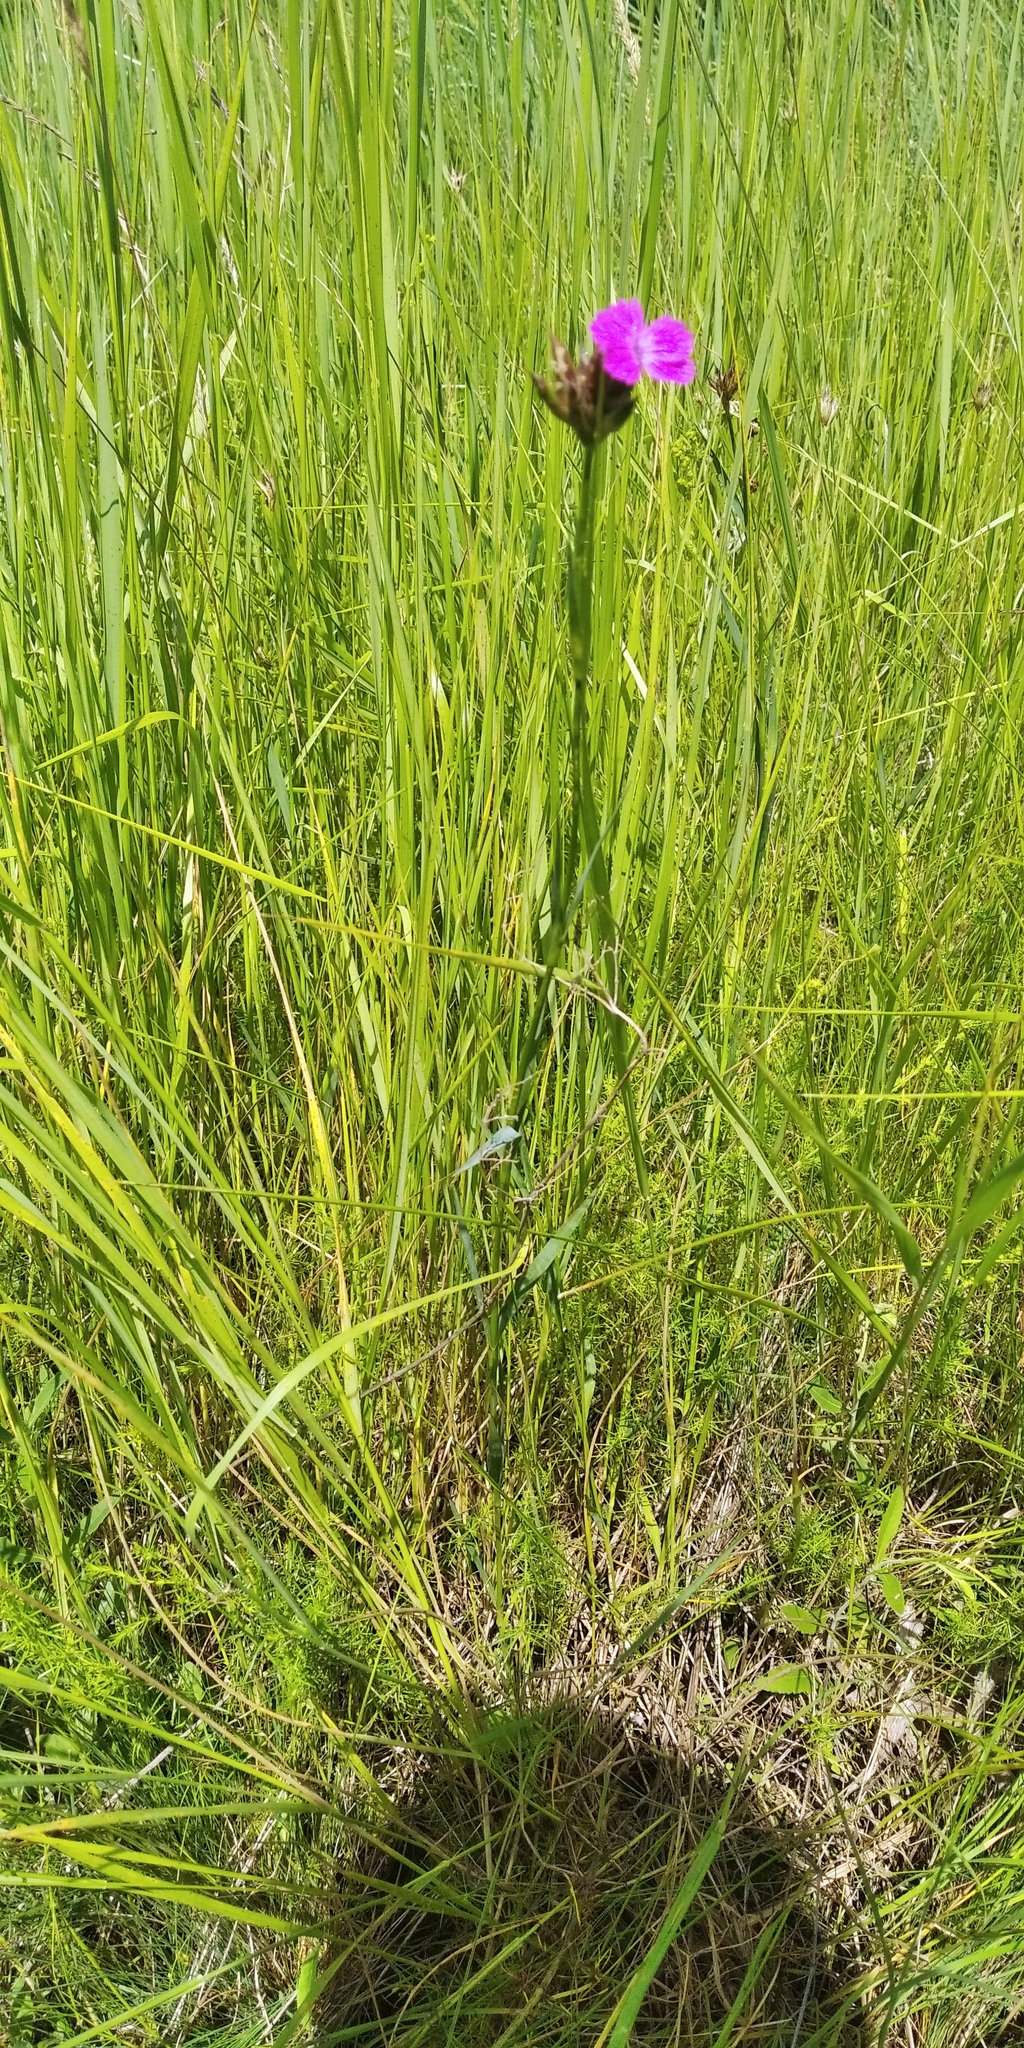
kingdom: Plantae
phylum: Tracheophyta
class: Magnoliopsida
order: Caryophyllales
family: Caryophyllaceae
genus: Dianthus
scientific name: Dianthus membranaceus
